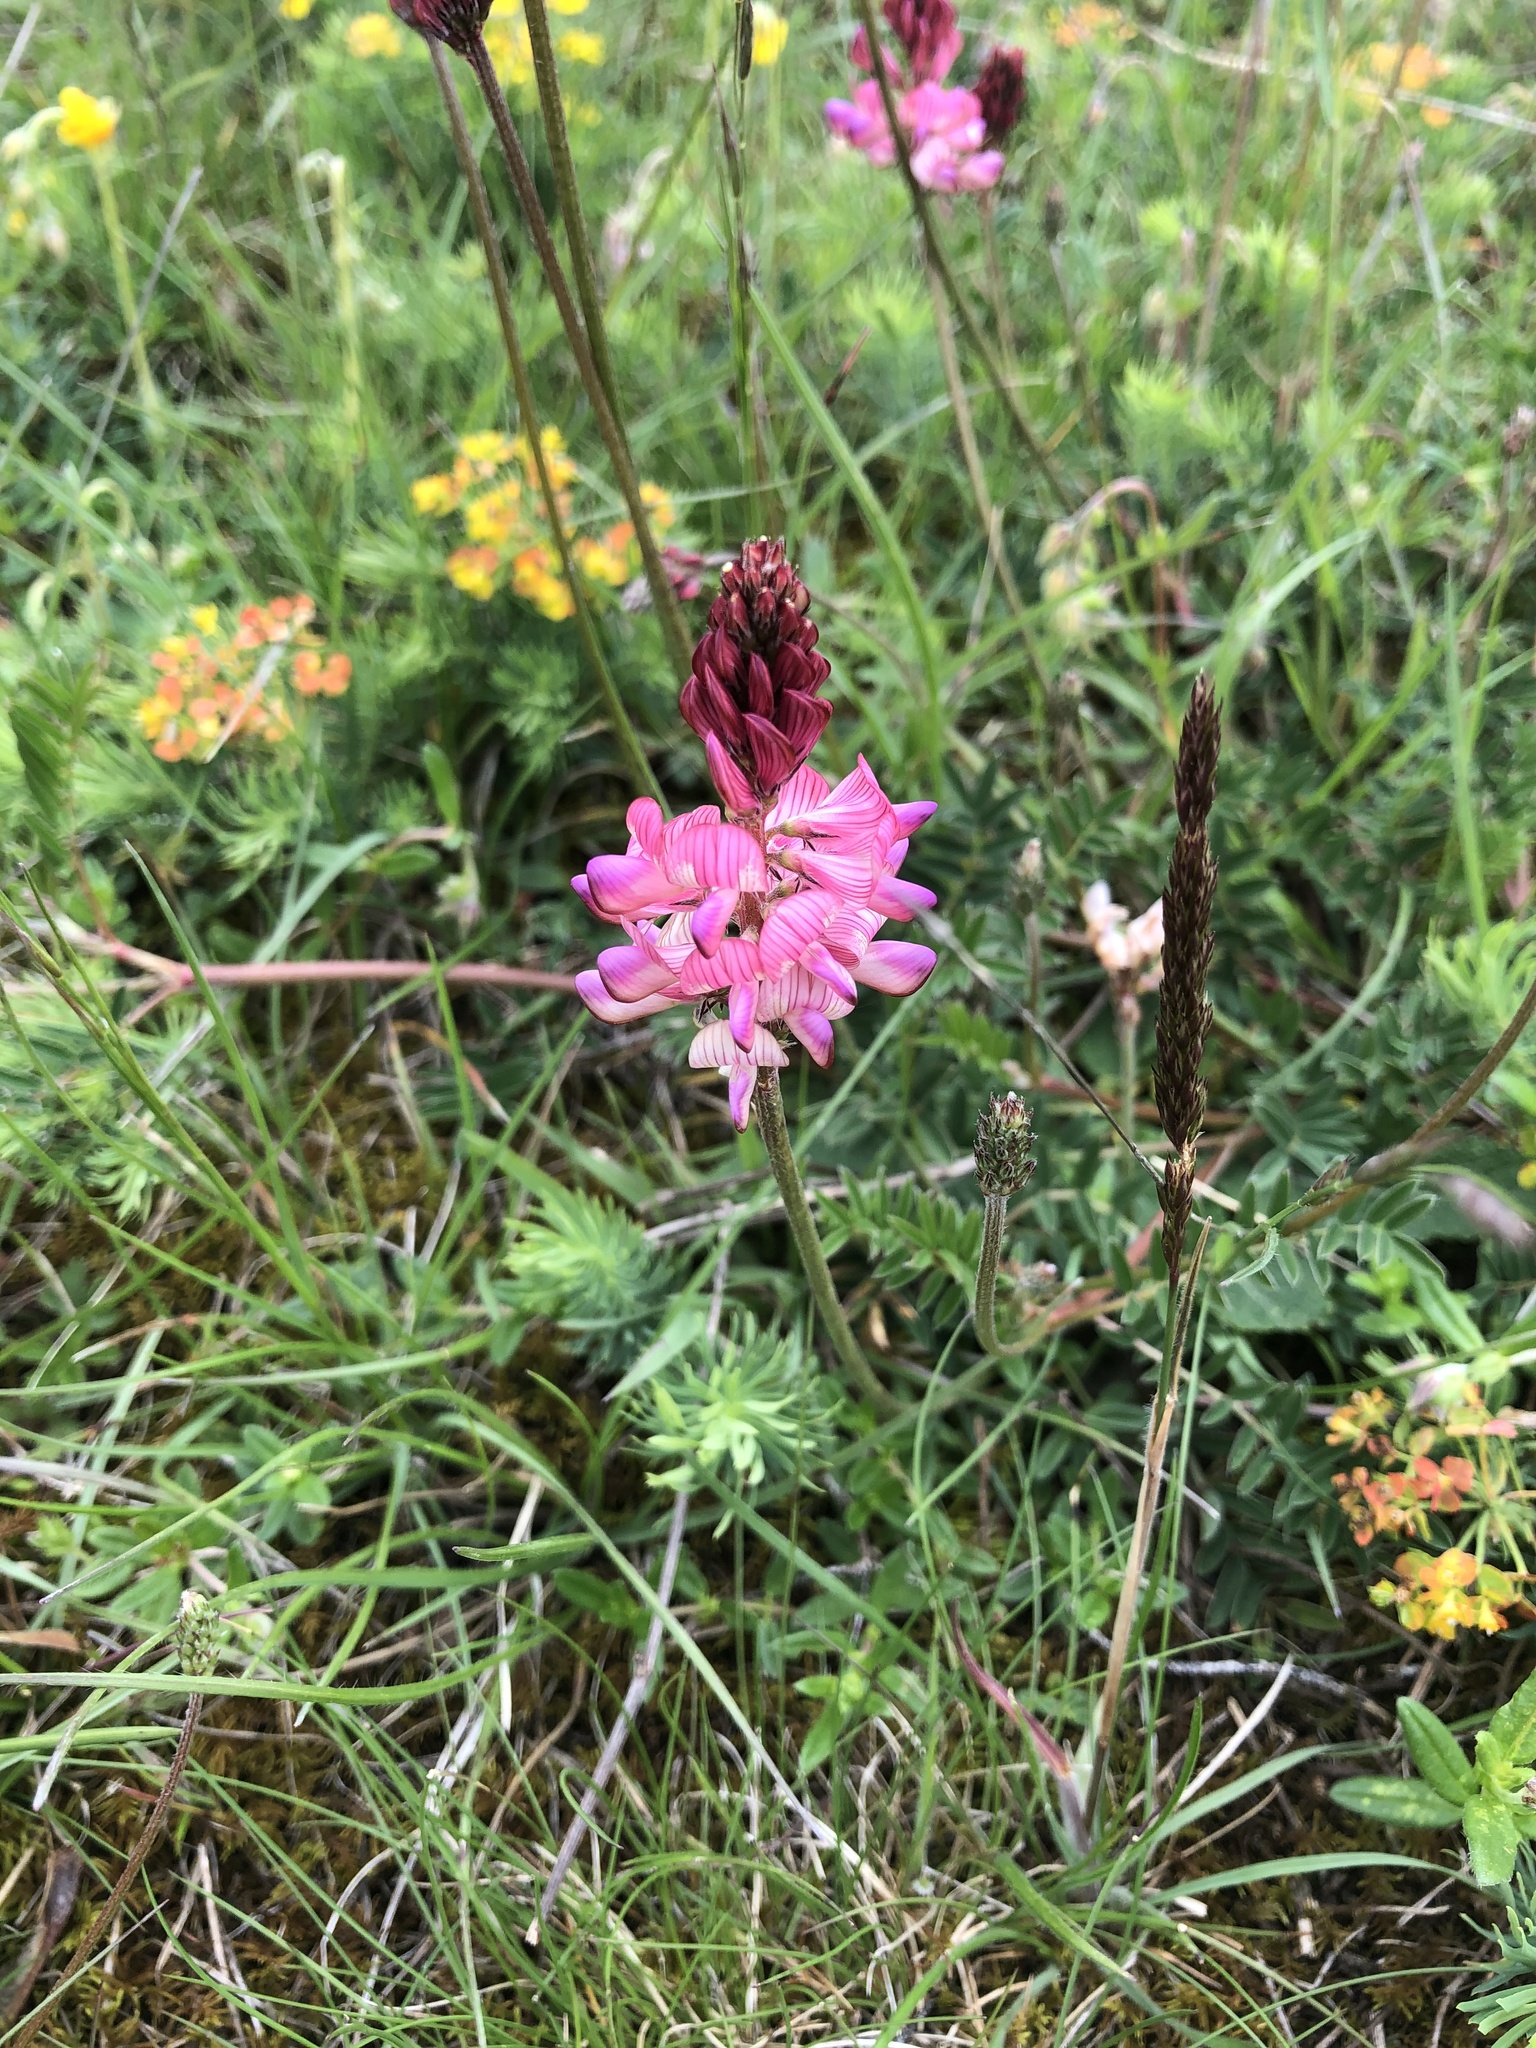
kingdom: Plantae
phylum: Tracheophyta
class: Magnoliopsida
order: Fabales
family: Fabaceae
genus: Onobrychis
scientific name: Onobrychis viciifolia
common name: Sainfoin
